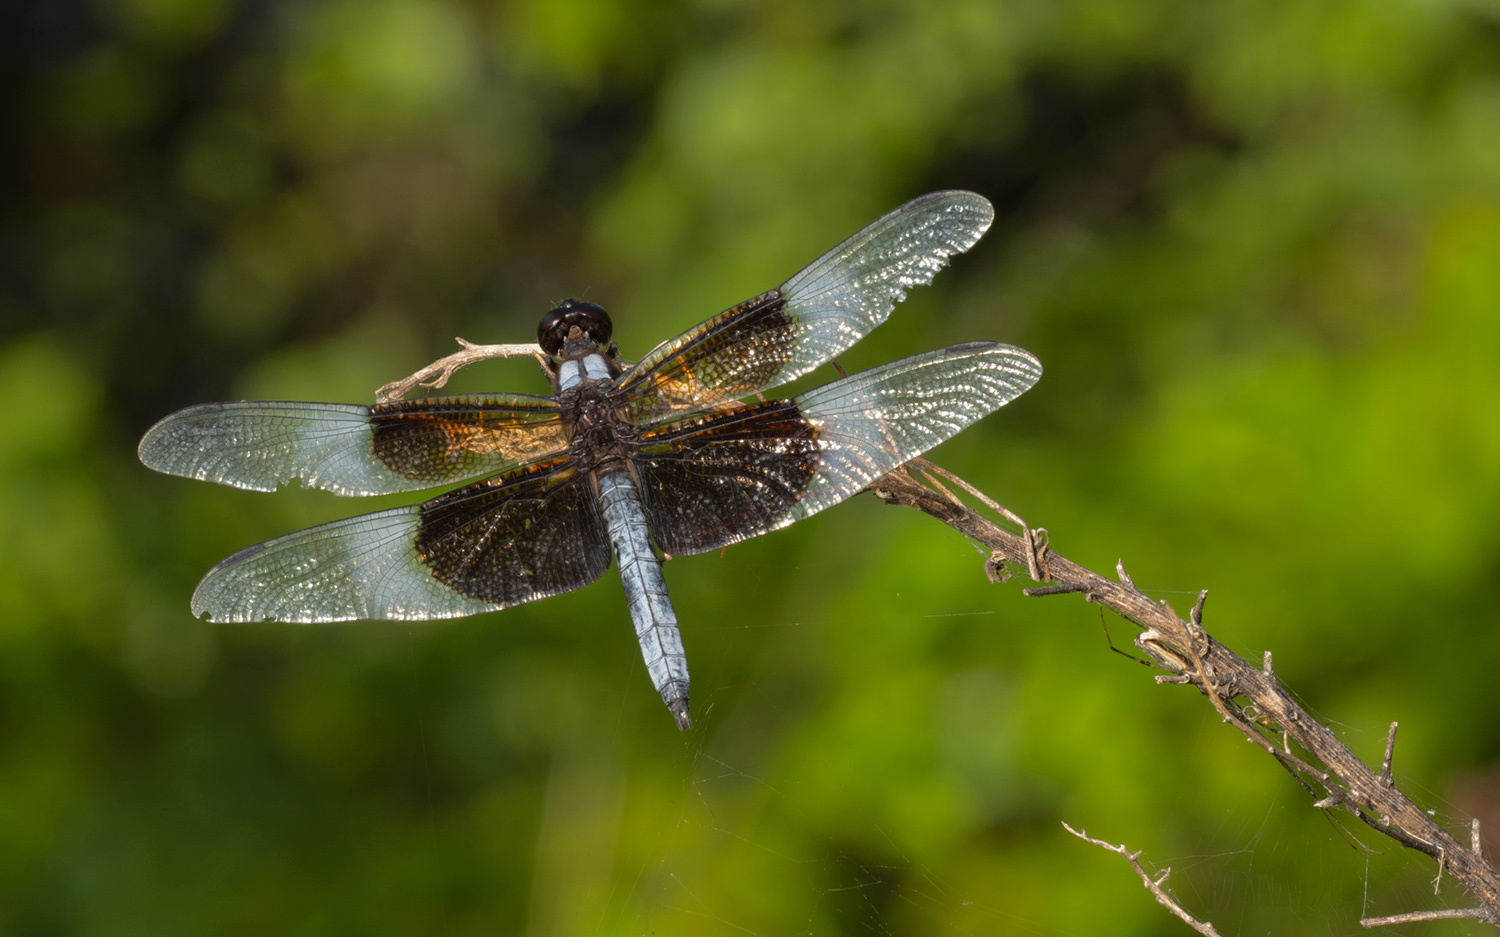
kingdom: Animalia
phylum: Arthropoda
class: Insecta
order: Odonata
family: Libellulidae
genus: Libellula
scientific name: Libellula luctuosa
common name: Widow skimmer
